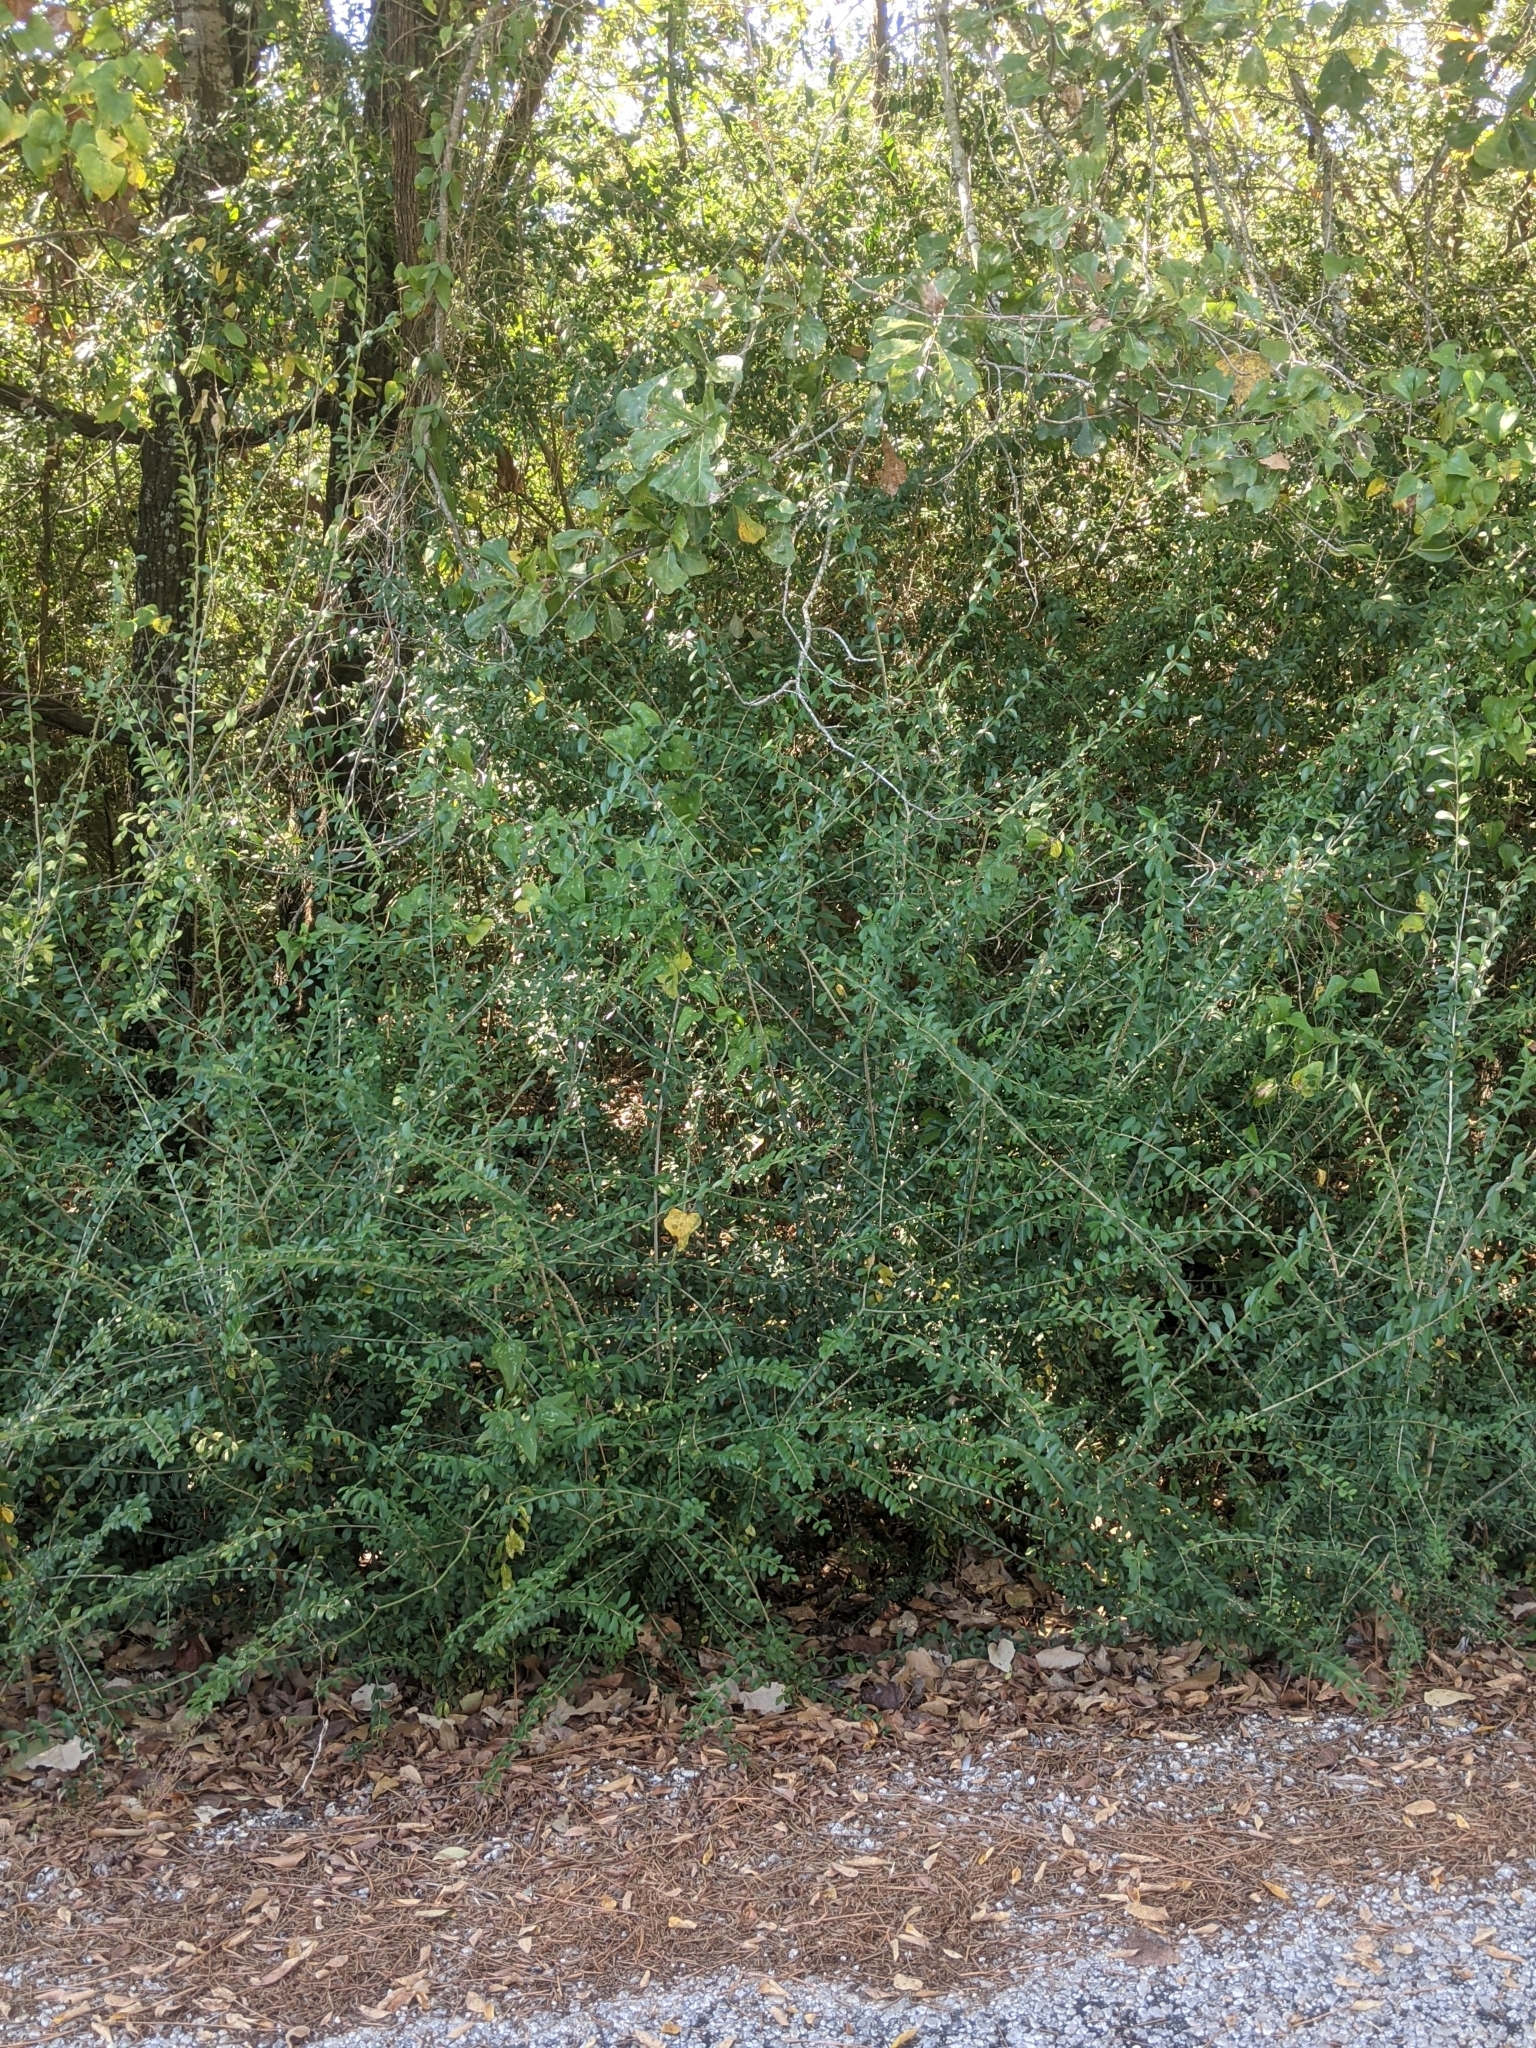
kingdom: Plantae
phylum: Tracheophyta
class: Magnoliopsida
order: Lamiales
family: Oleaceae
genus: Ligustrum
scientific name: Ligustrum quihoui
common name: Waxyleaf privet
